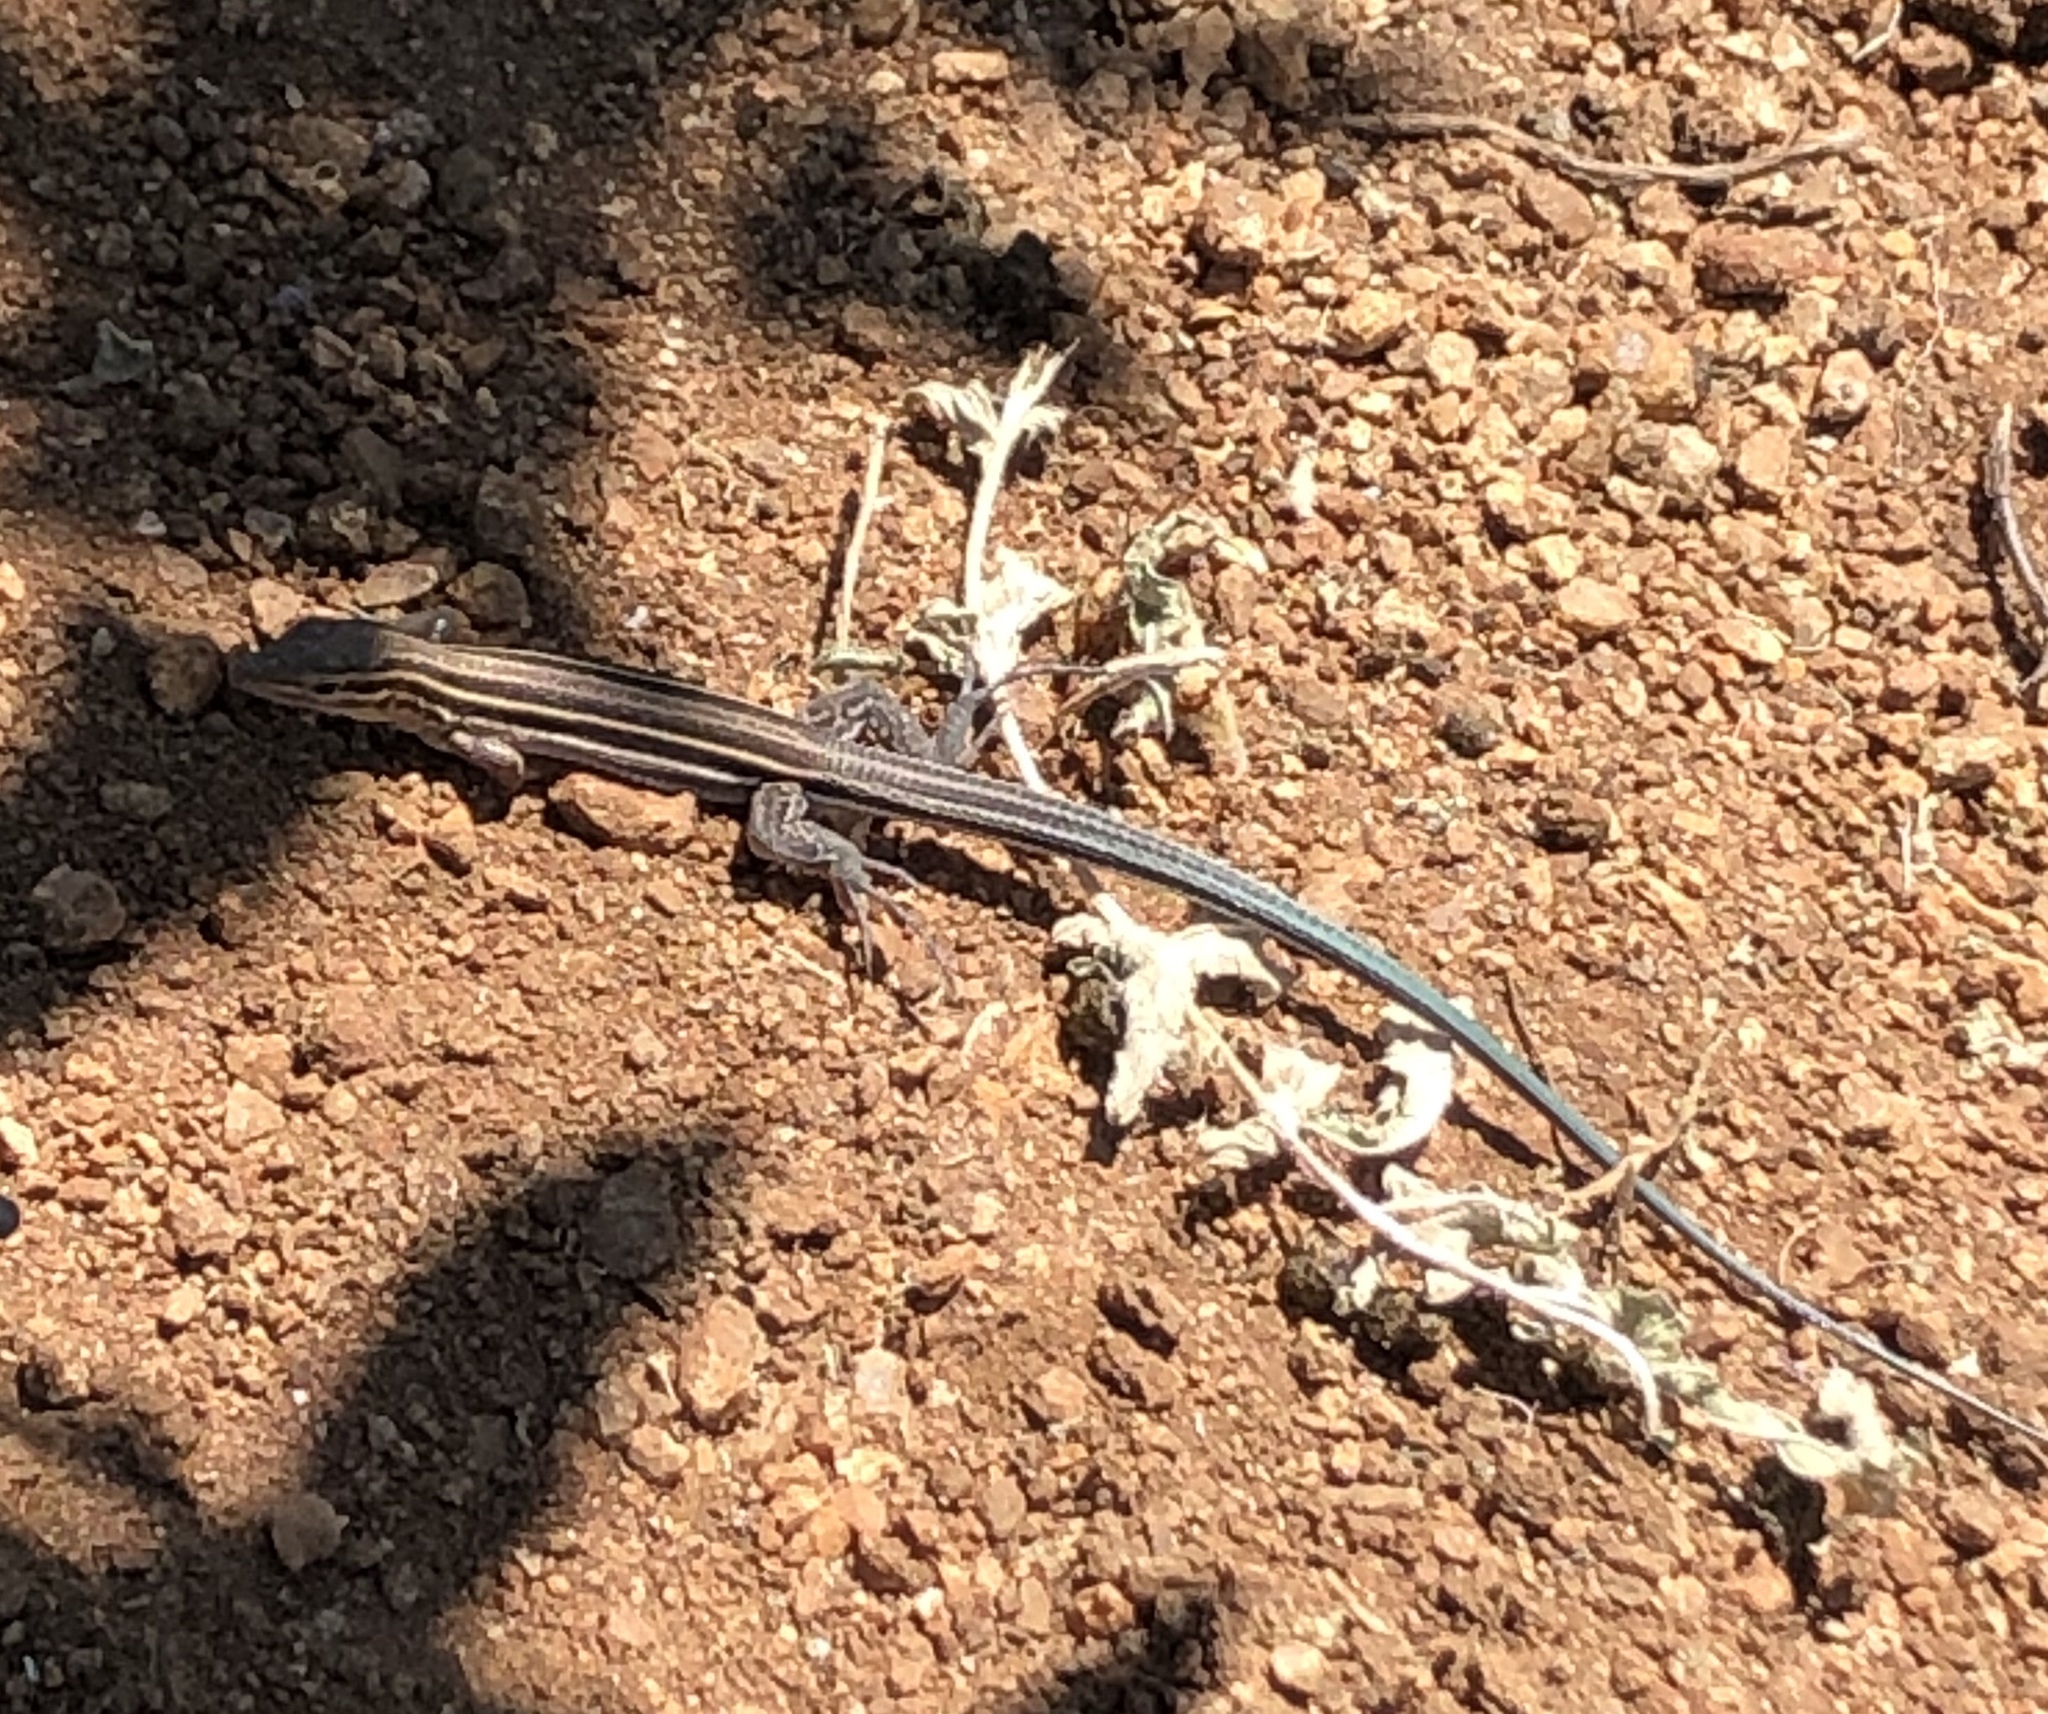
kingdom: Animalia
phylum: Chordata
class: Squamata
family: Teiidae
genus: Aspidoscelis
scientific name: Aspidoscelis hyperythrus
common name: Orange-throated race-runner
